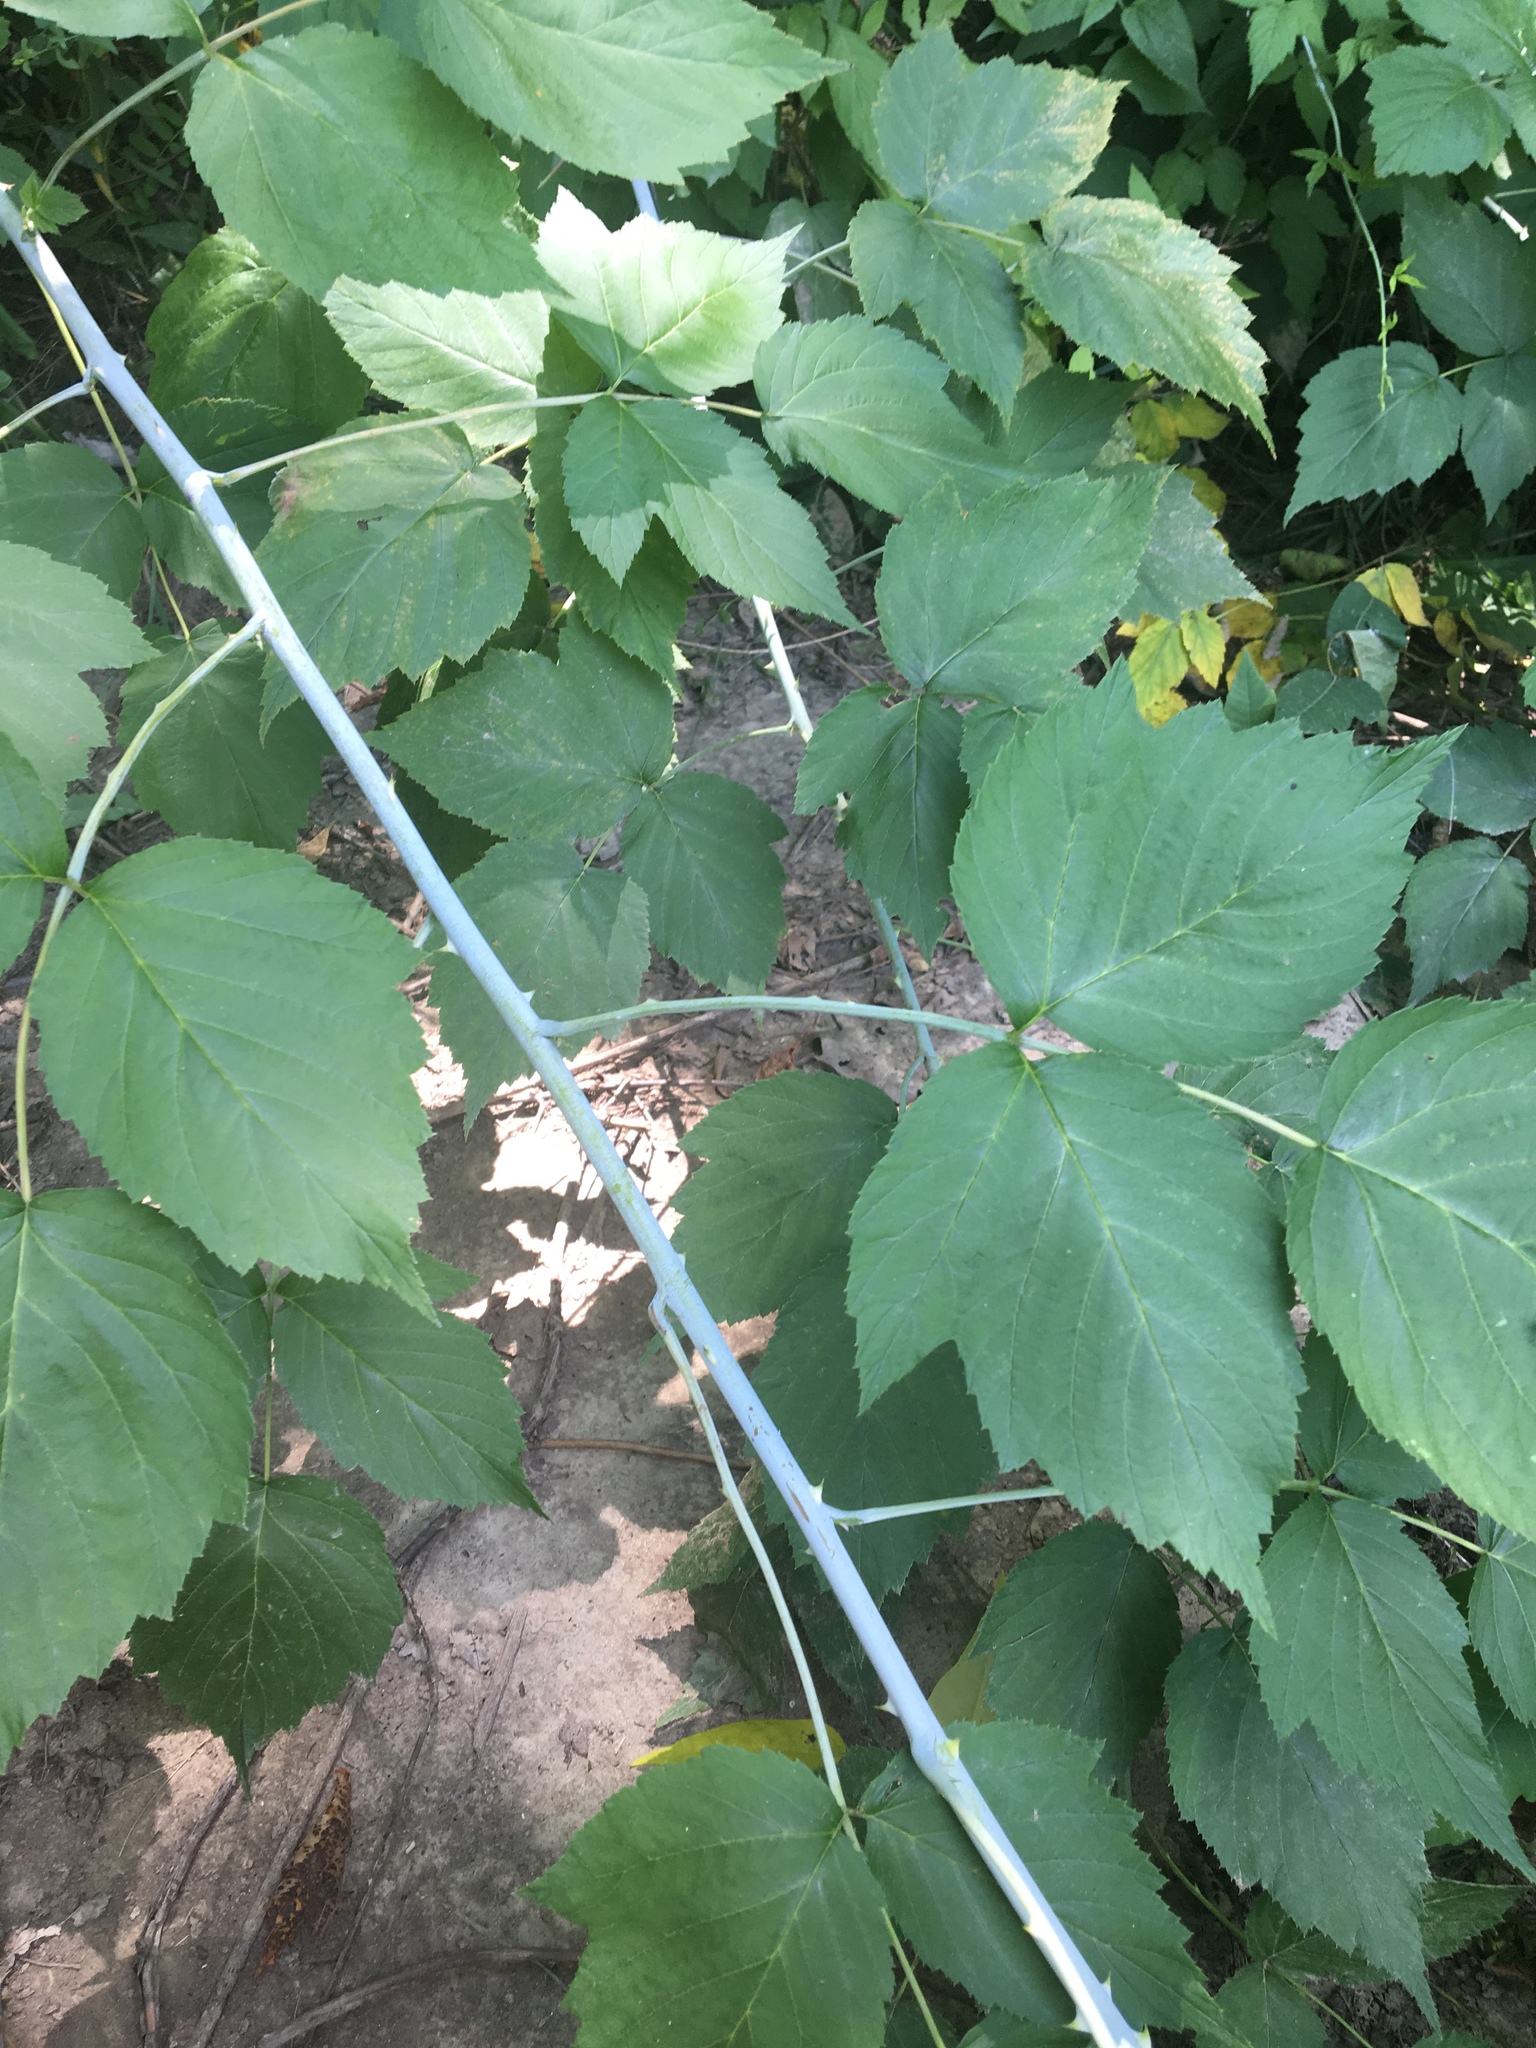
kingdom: Plantae
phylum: Tracheophyta
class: Magnoliopsida
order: Rosales
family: Rosaceae
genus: Rubus
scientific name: Rubus occidentalis
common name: Black raspberry
